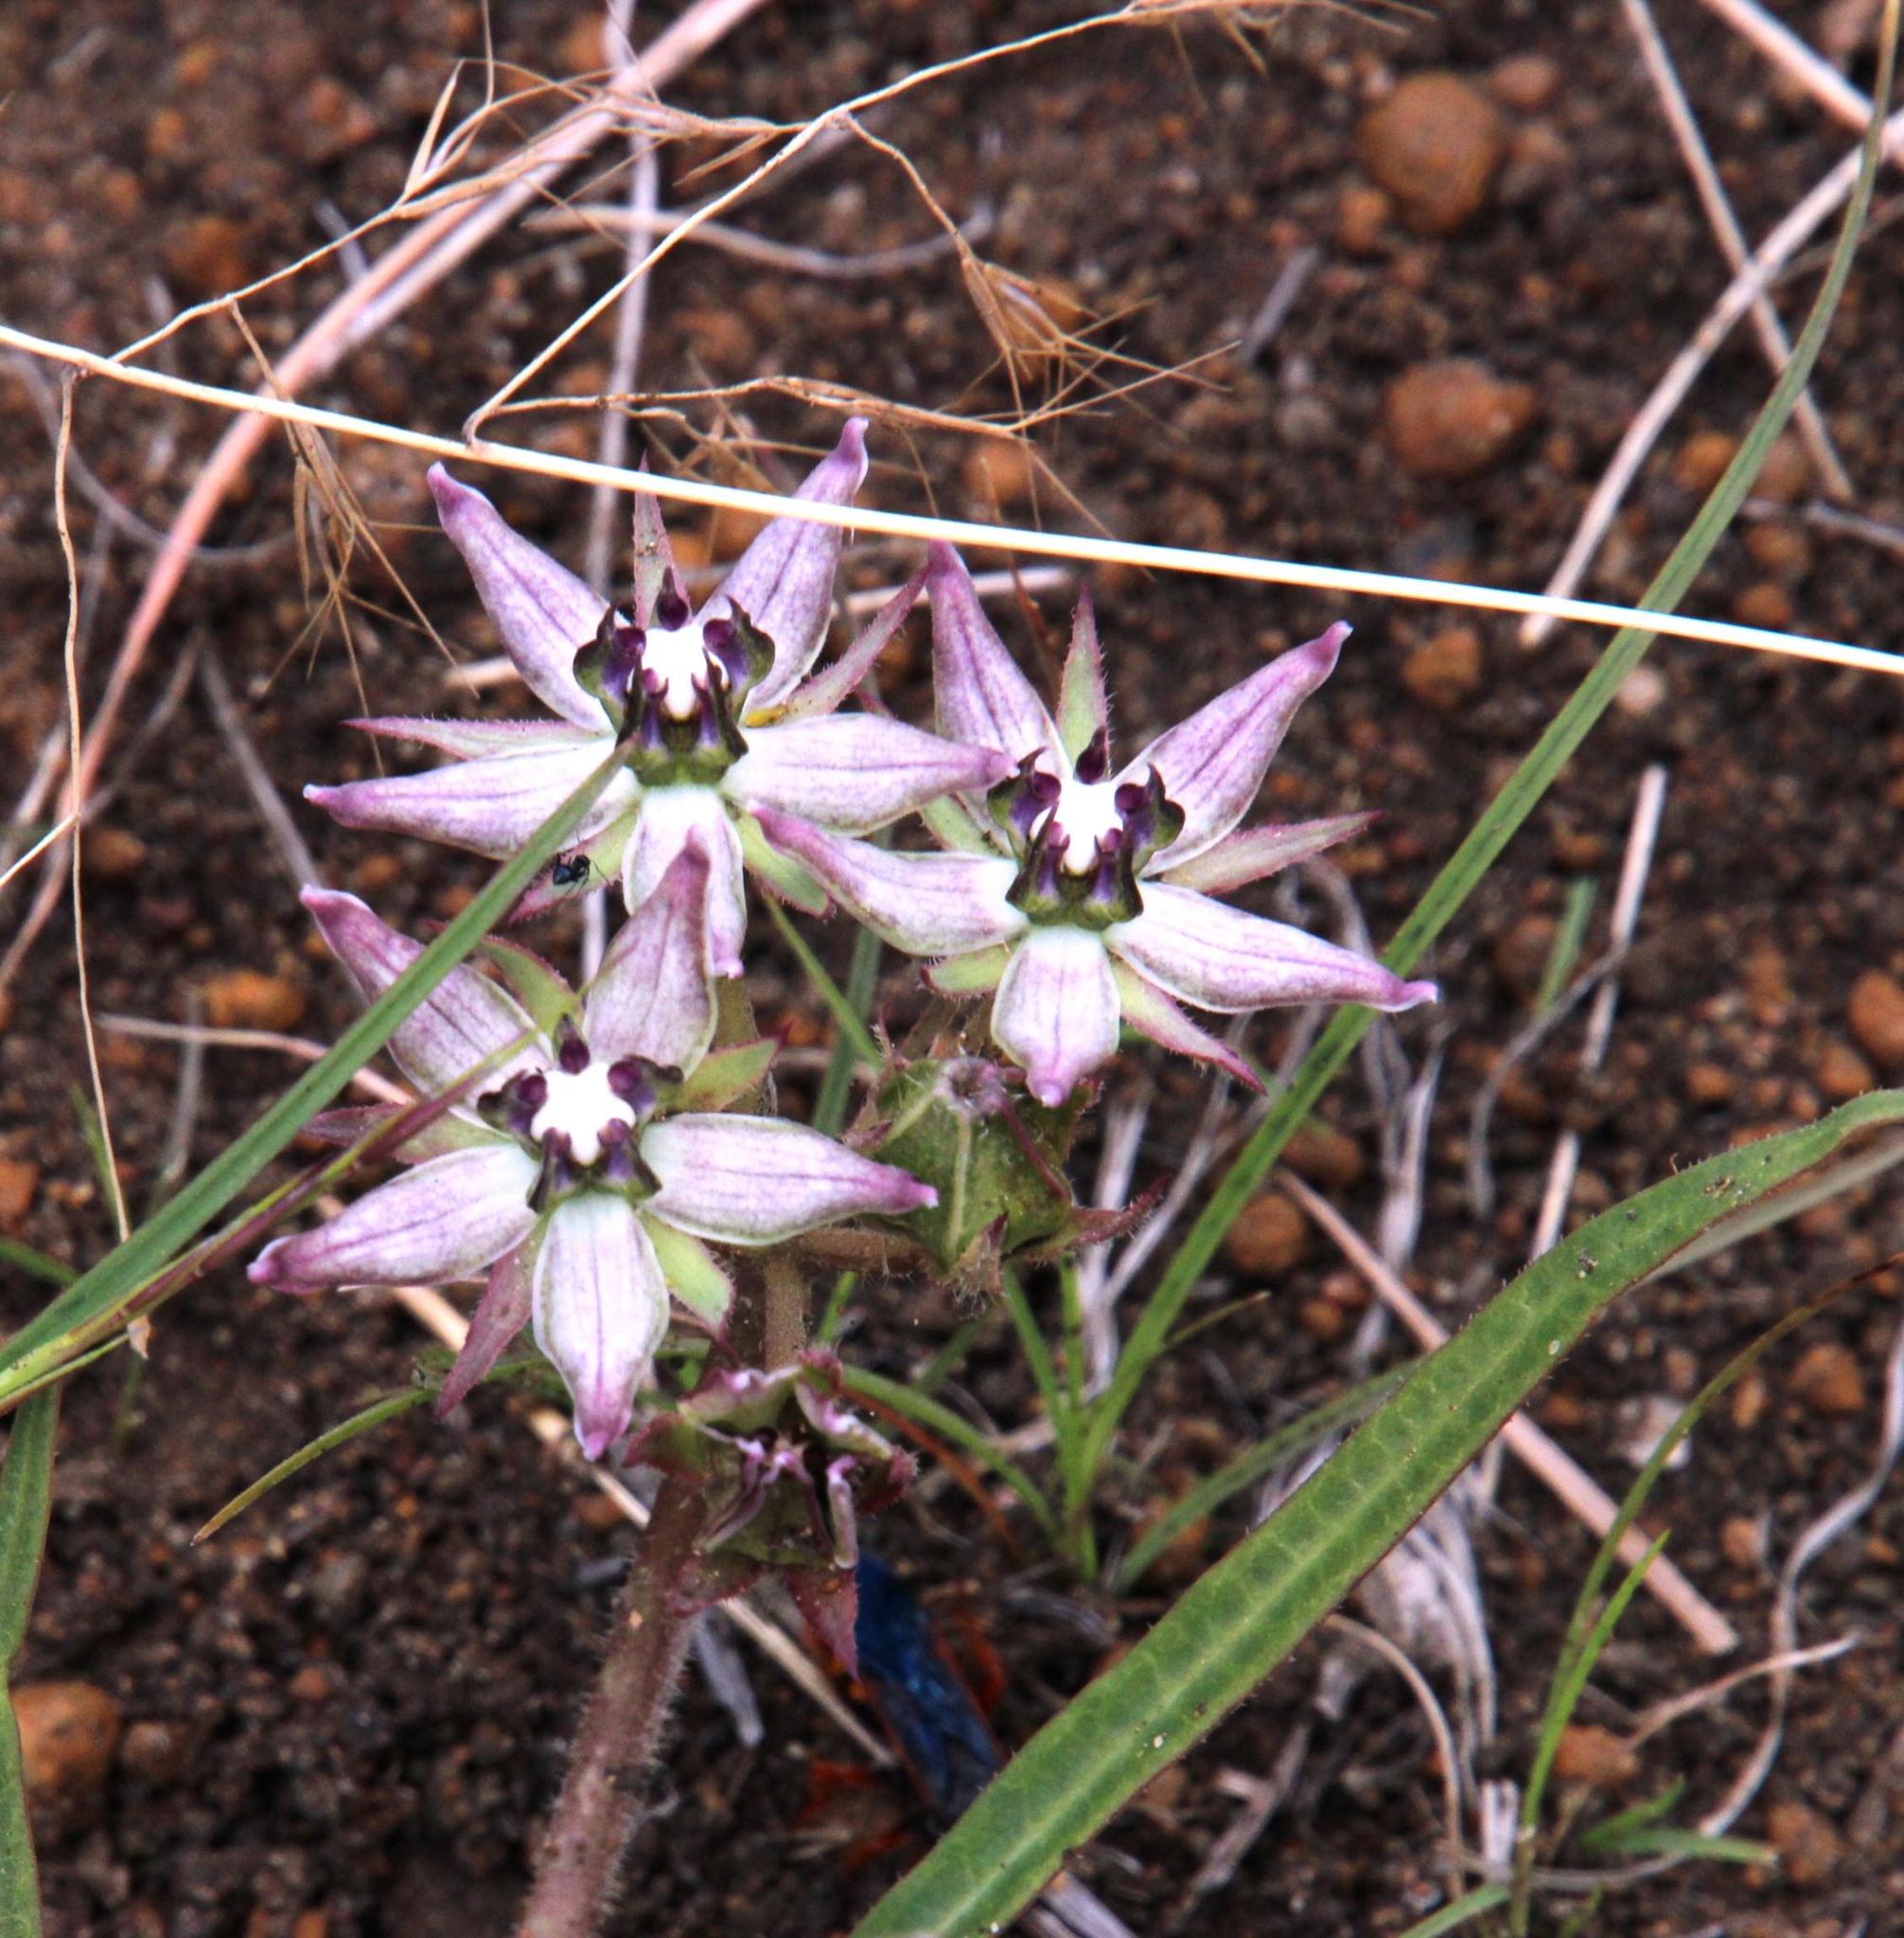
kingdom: Plantae
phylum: Tracheophyta
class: Magnoliopsida
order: Gentianales
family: Apocynaceae
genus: Asclepias
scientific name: Asclepias gibba
